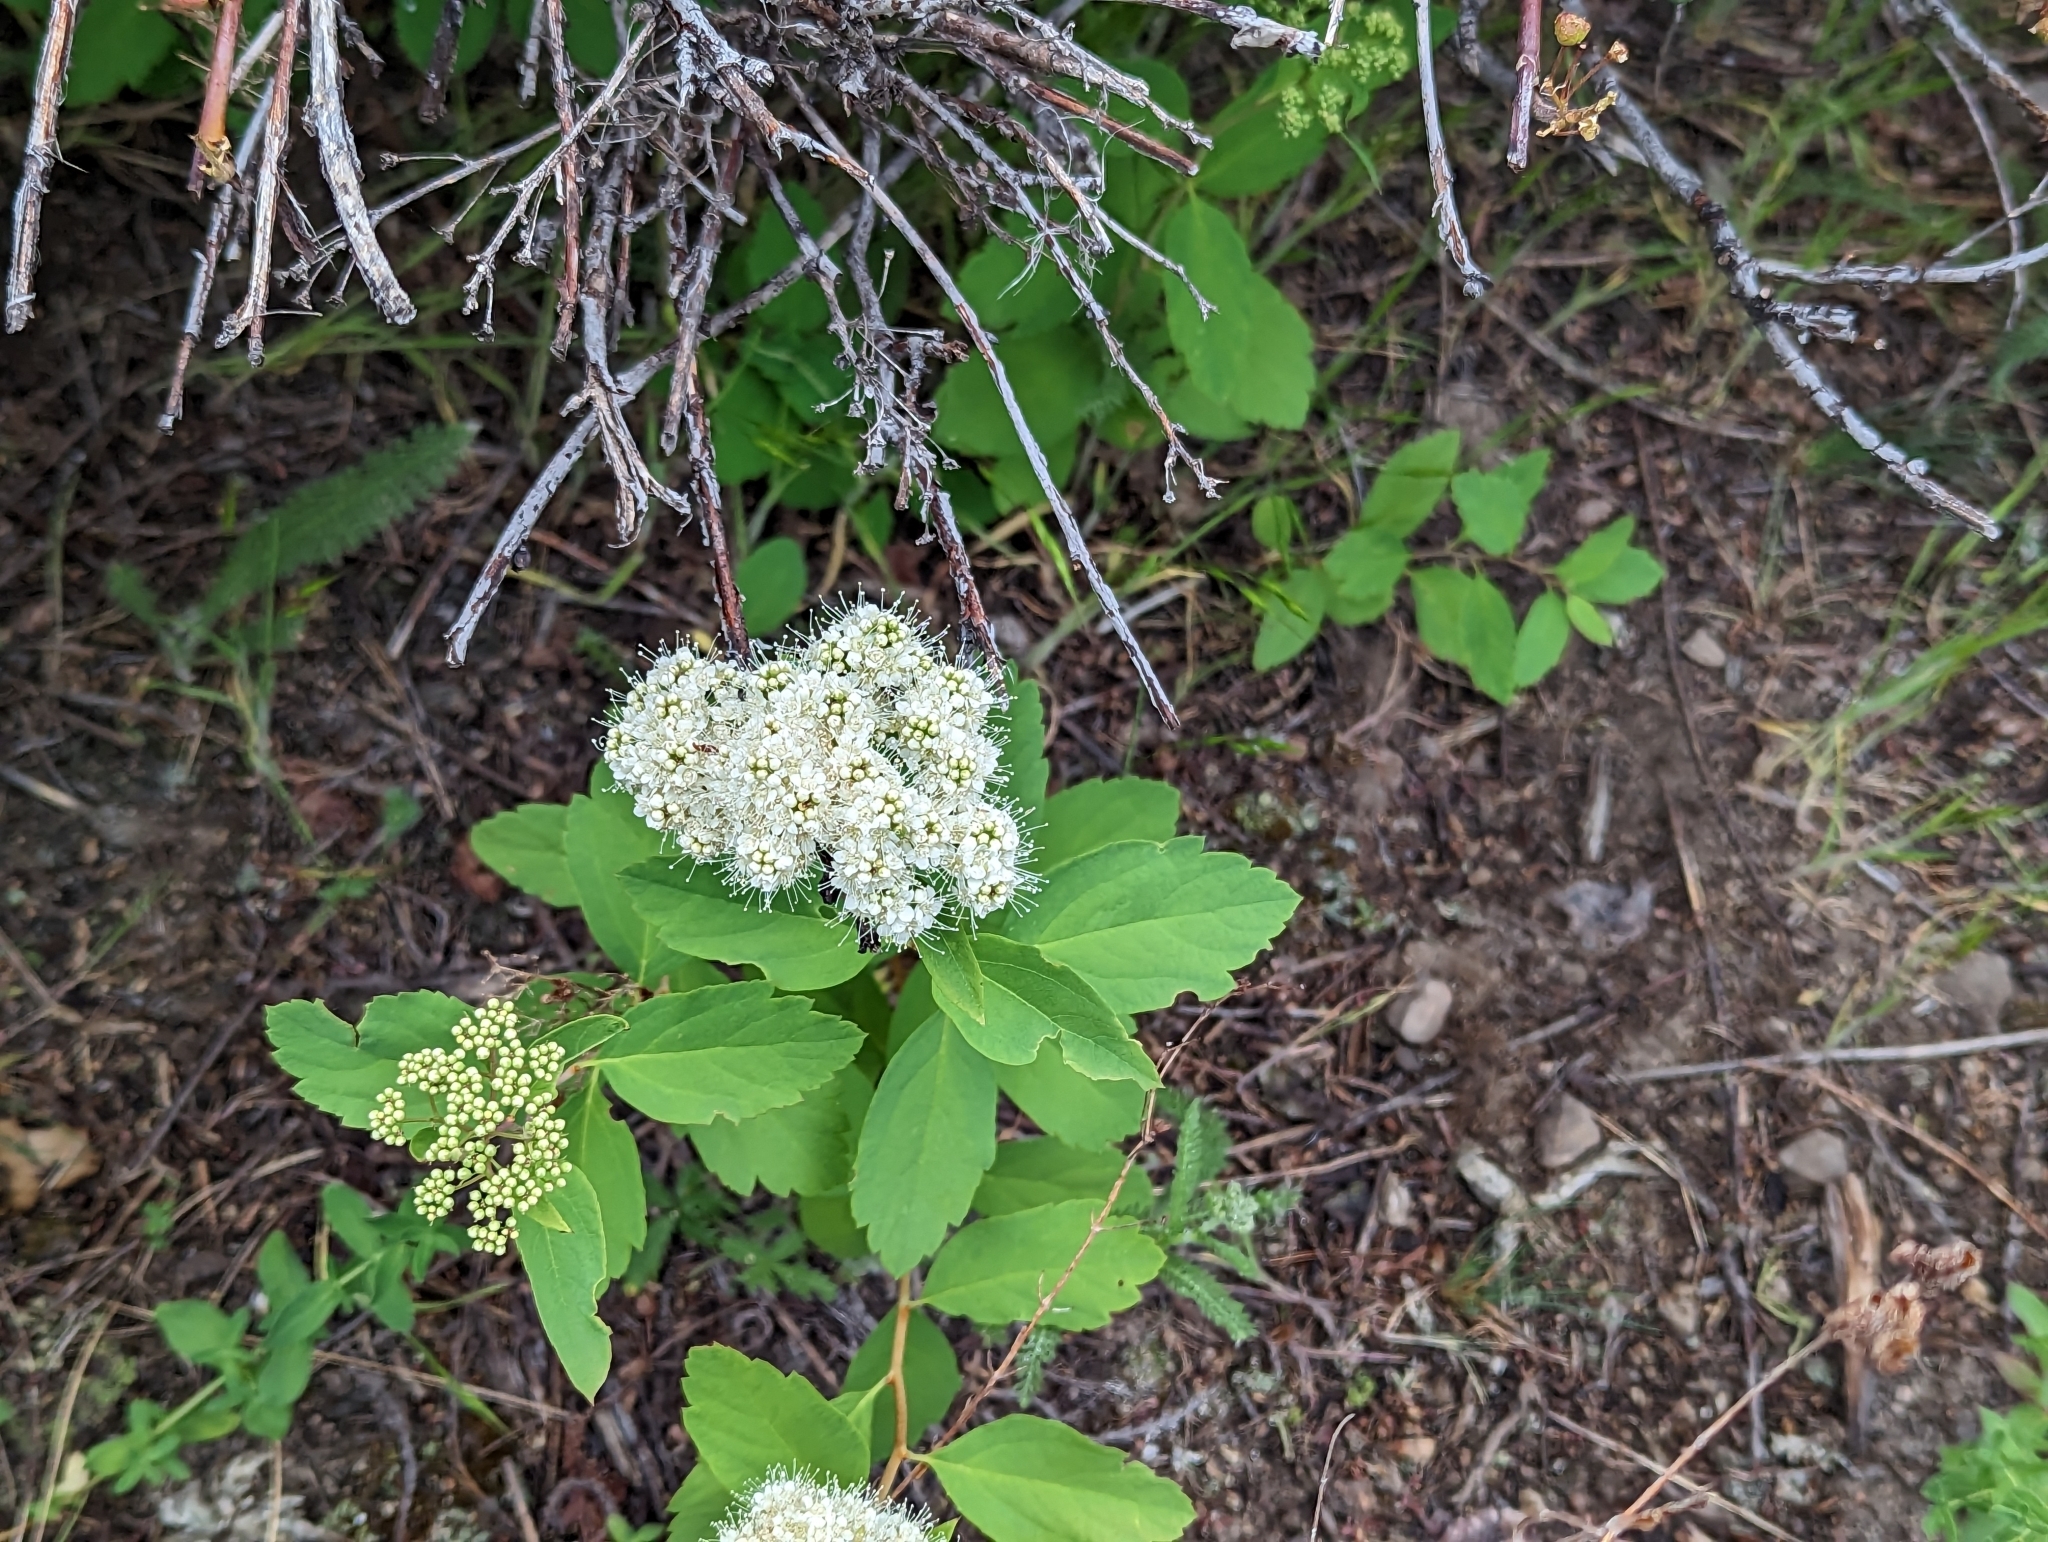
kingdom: Plantae
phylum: Tracheophyta
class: Magnoliopsida
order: Rosales
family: Rosaceae
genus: Spiraea
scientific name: Spiraea lucida
